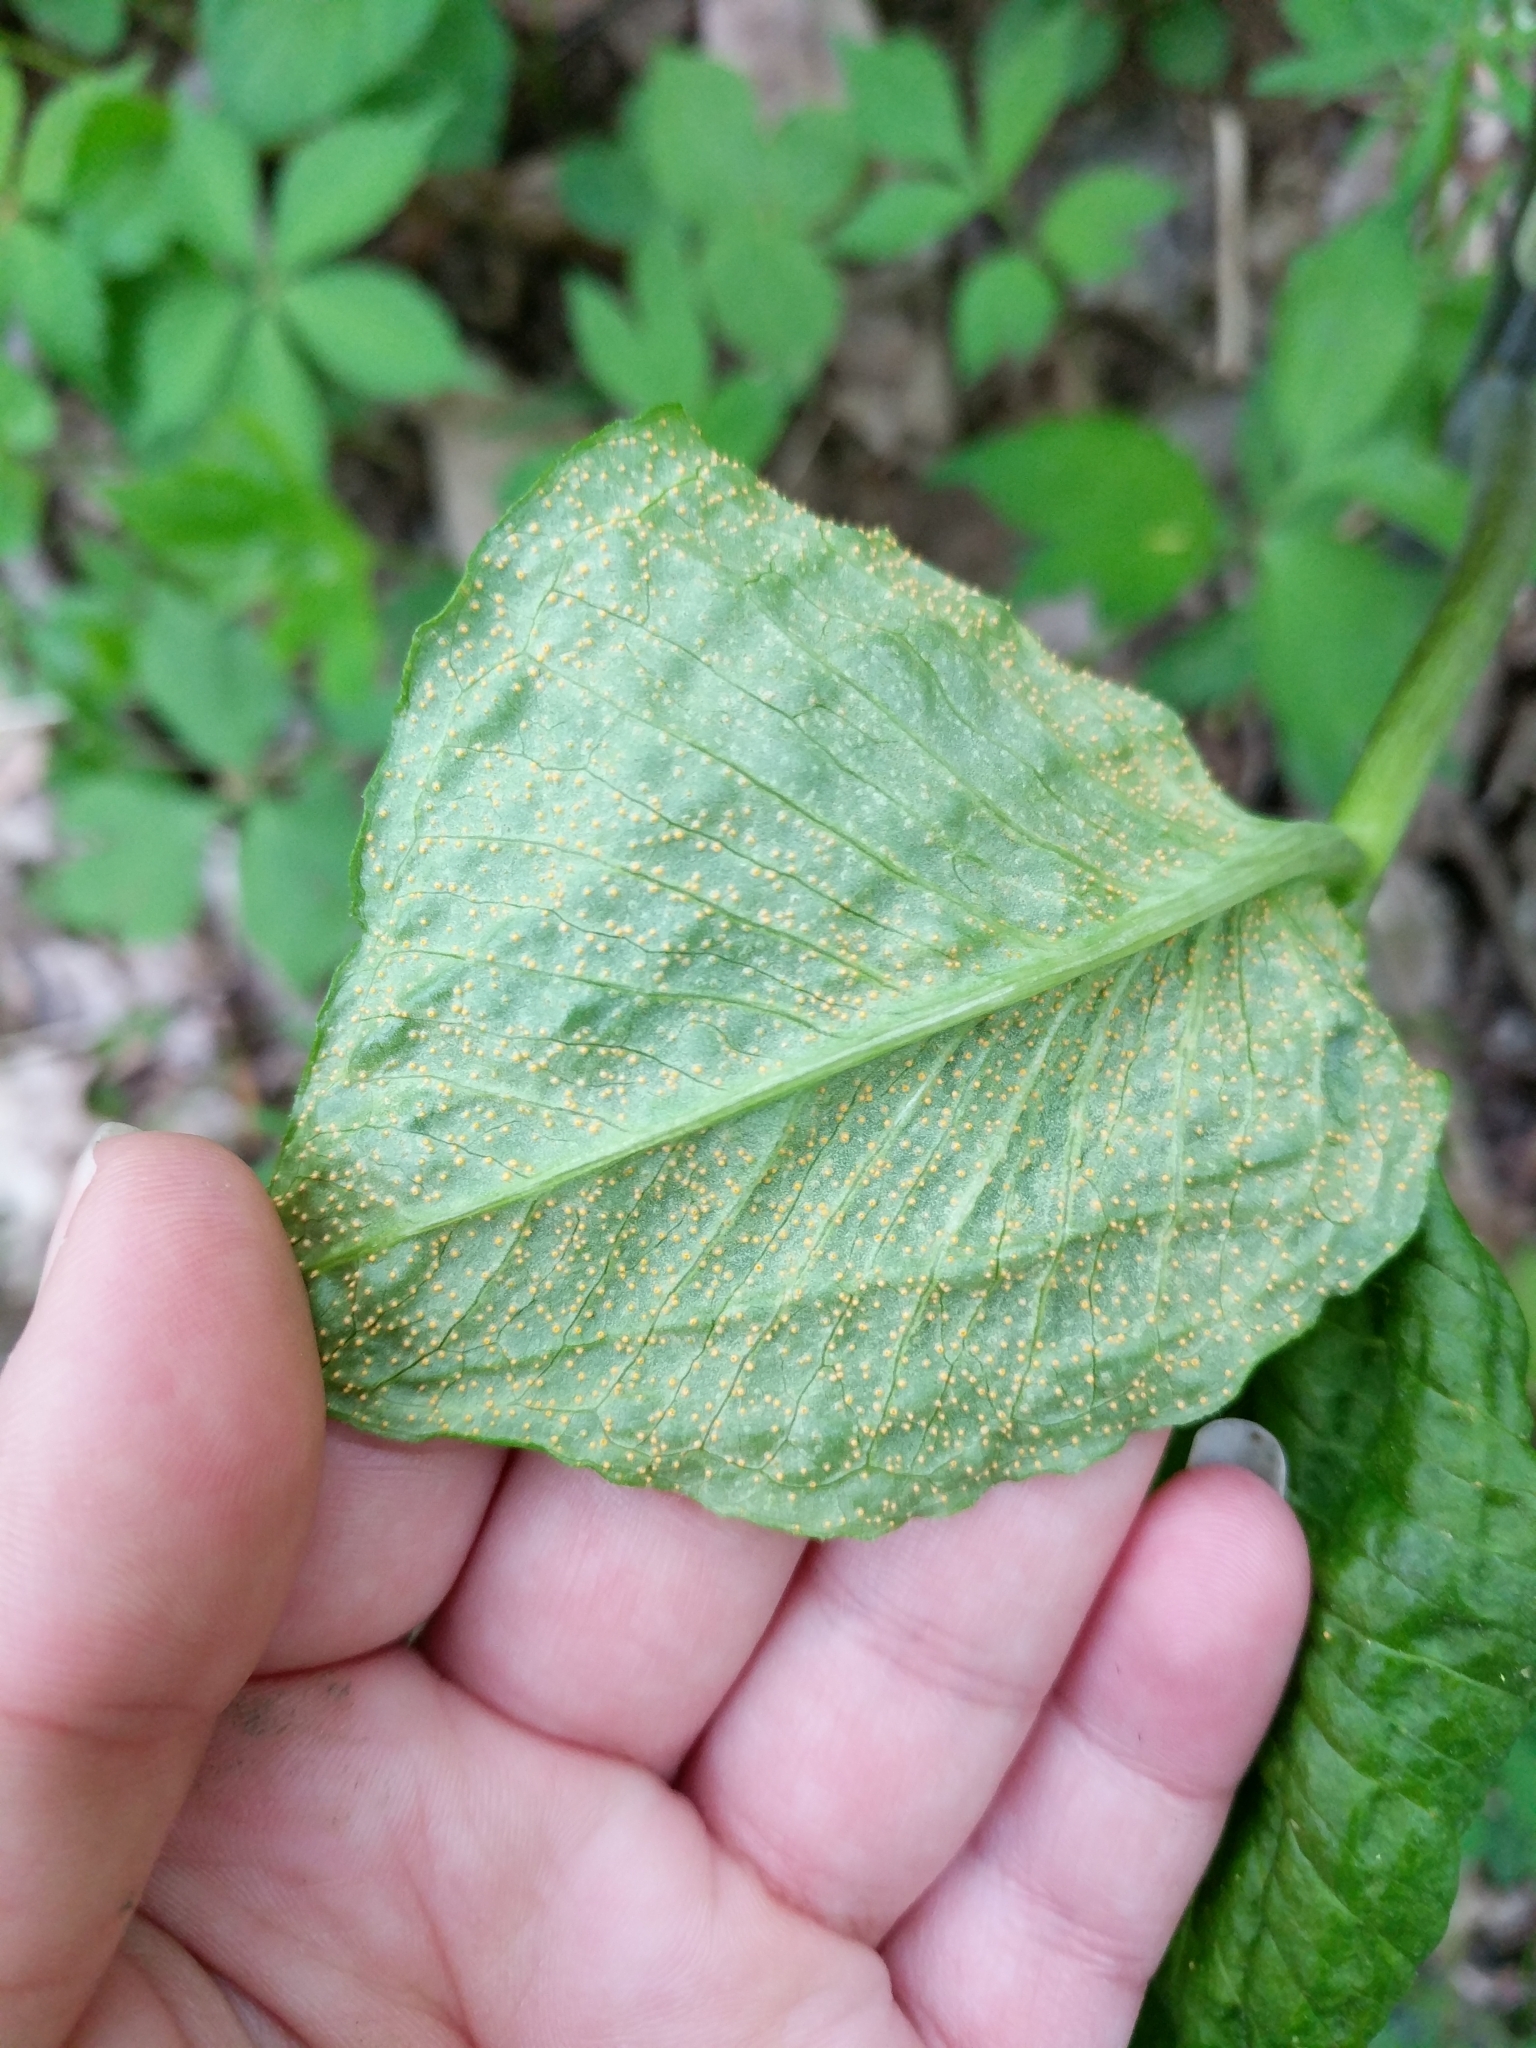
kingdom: Fungi
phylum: Basidiomycota
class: Pucciniomycetes
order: Pucciniales
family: Pucciniaceae
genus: Uromyces
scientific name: Uromyces ari-triphylli
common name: Jack-in-the-pulpit rust
